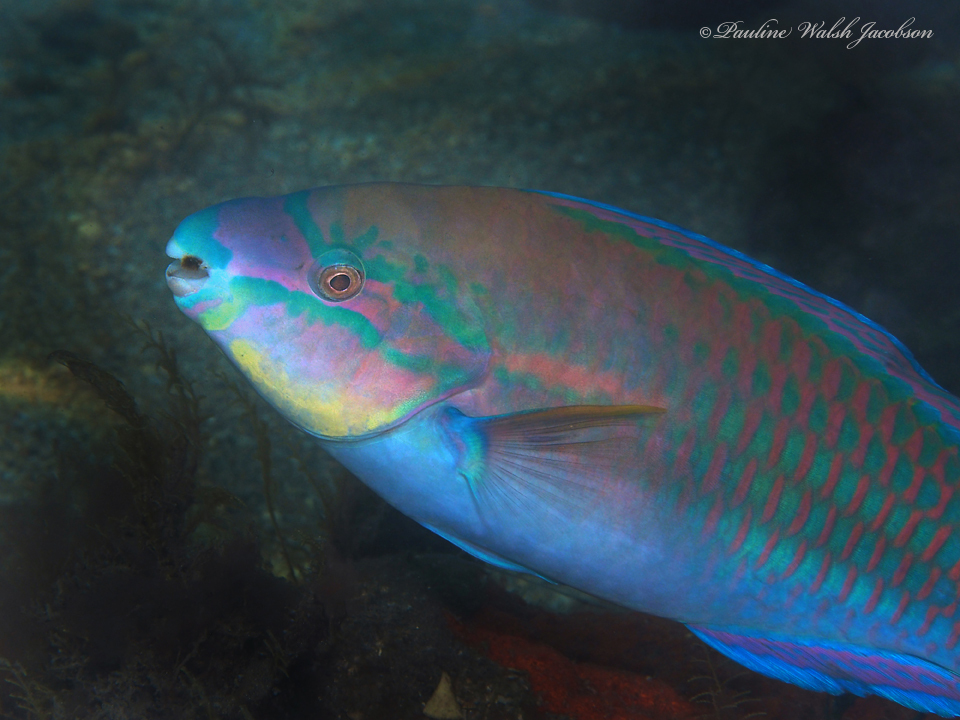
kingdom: Animalia
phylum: Chordata
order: Perciformes
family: Scaridae
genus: Scarus
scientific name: Scarus iseri
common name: Striped parrotfish
